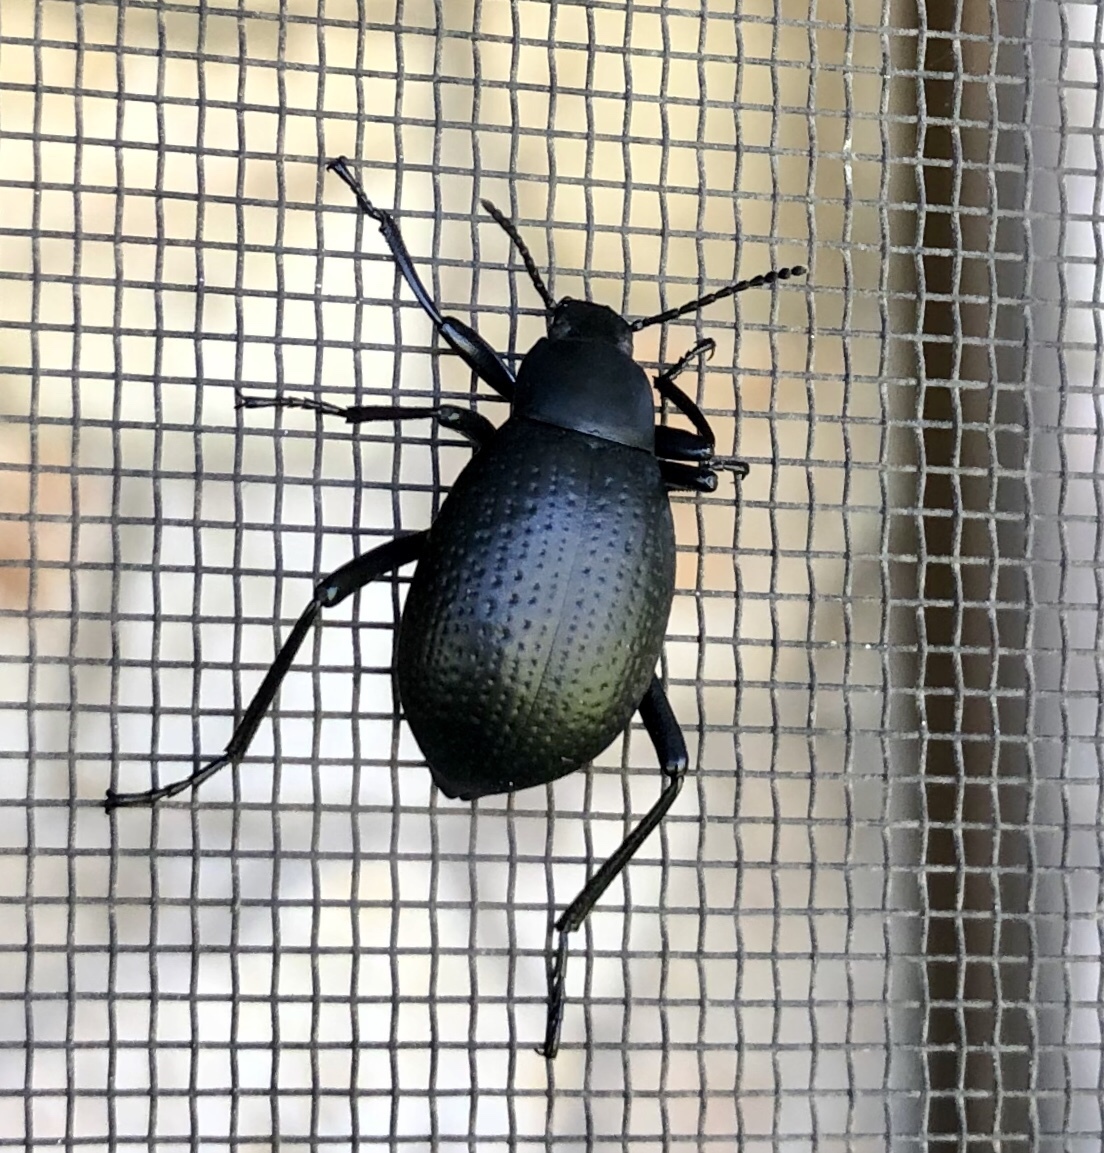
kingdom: Animalia
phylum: Arthropoda
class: Insecta
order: Coleoptera
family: Tenebrionidae
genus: Eleodes
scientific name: Eleodes goryi
